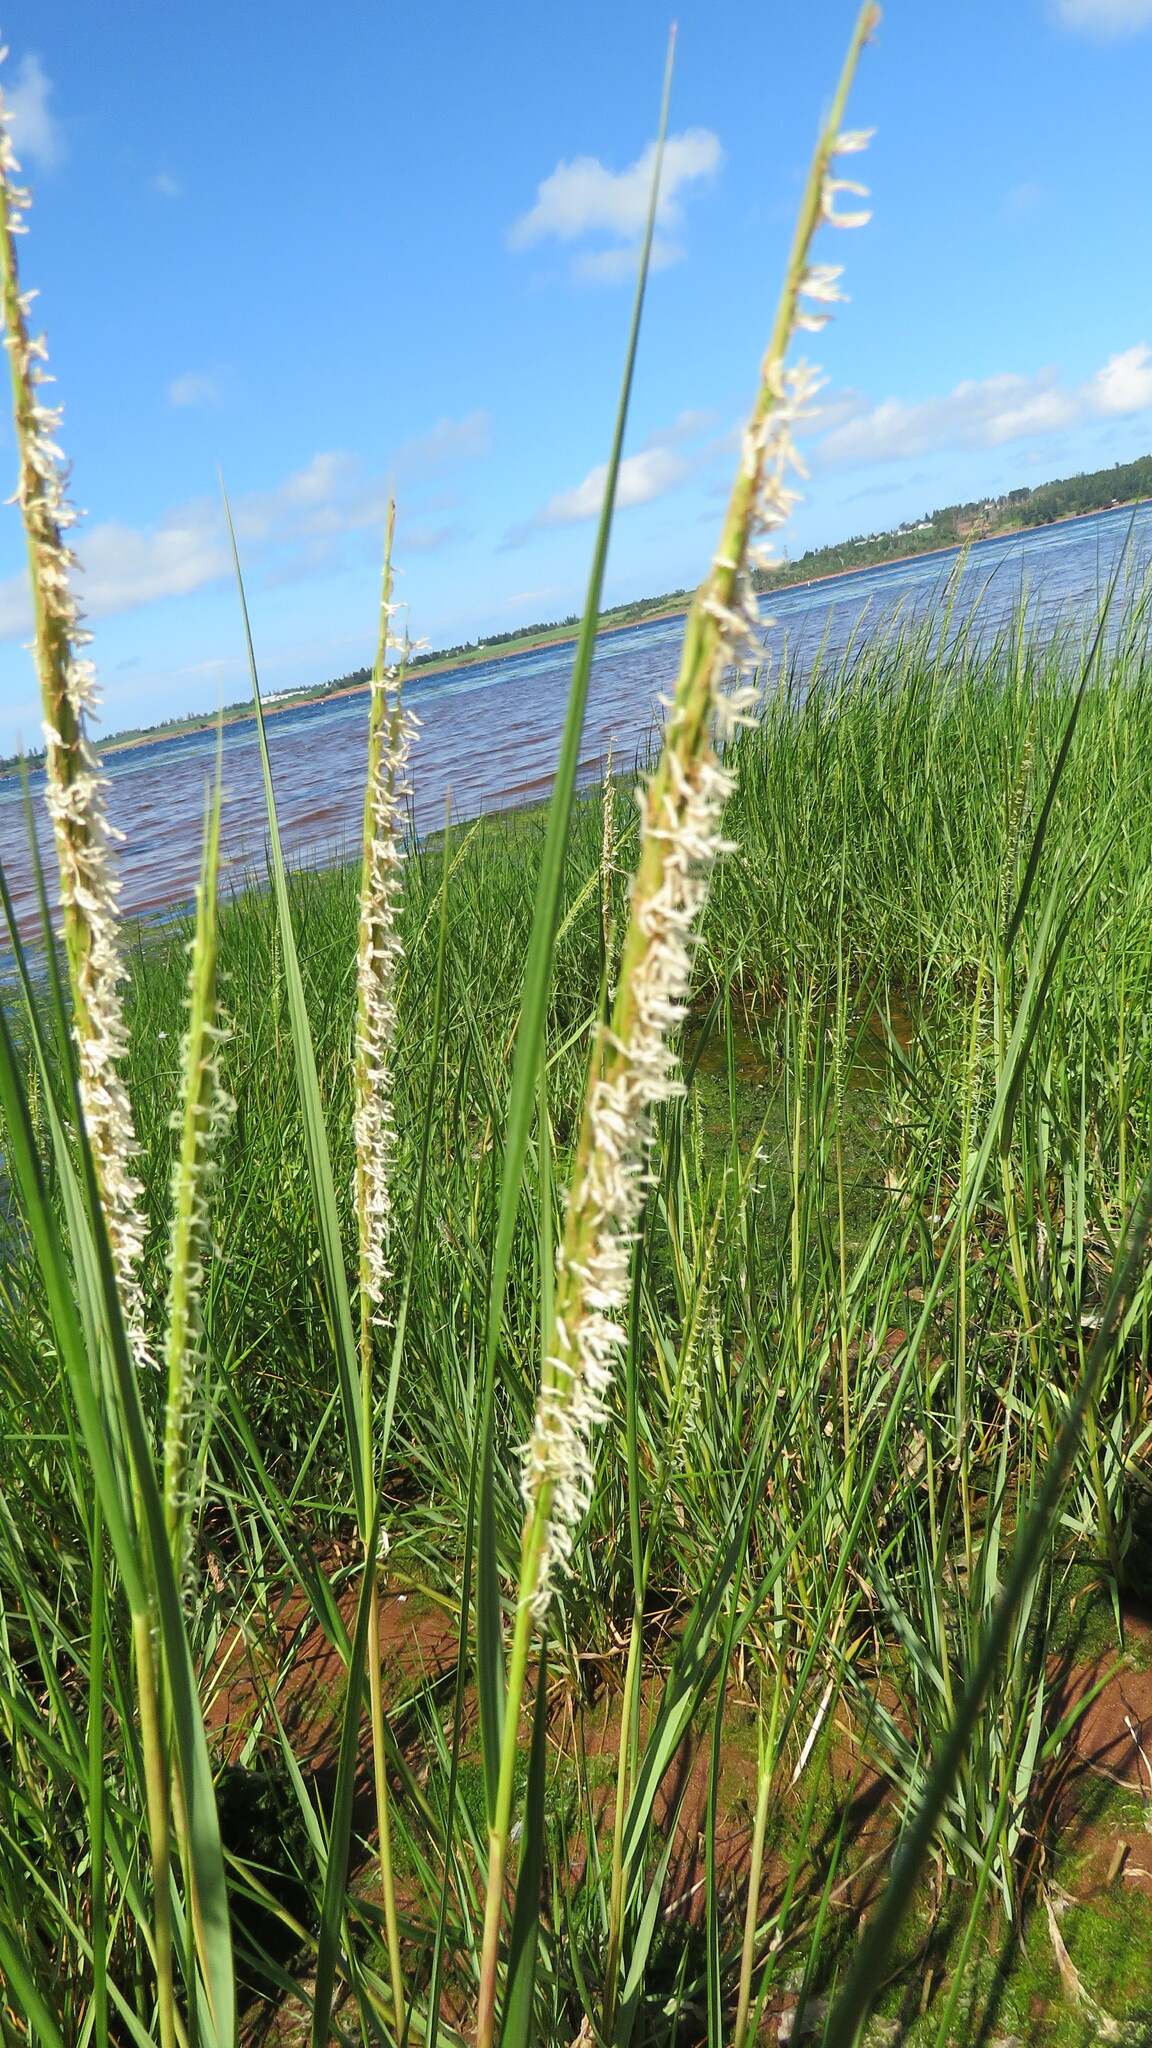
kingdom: Plantae
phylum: Tracheophyta
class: Liliopsida
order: Poales
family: Poaceae
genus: Sporobolus
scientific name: Sporobolus alterniflorus
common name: Atlantic cordgrass
